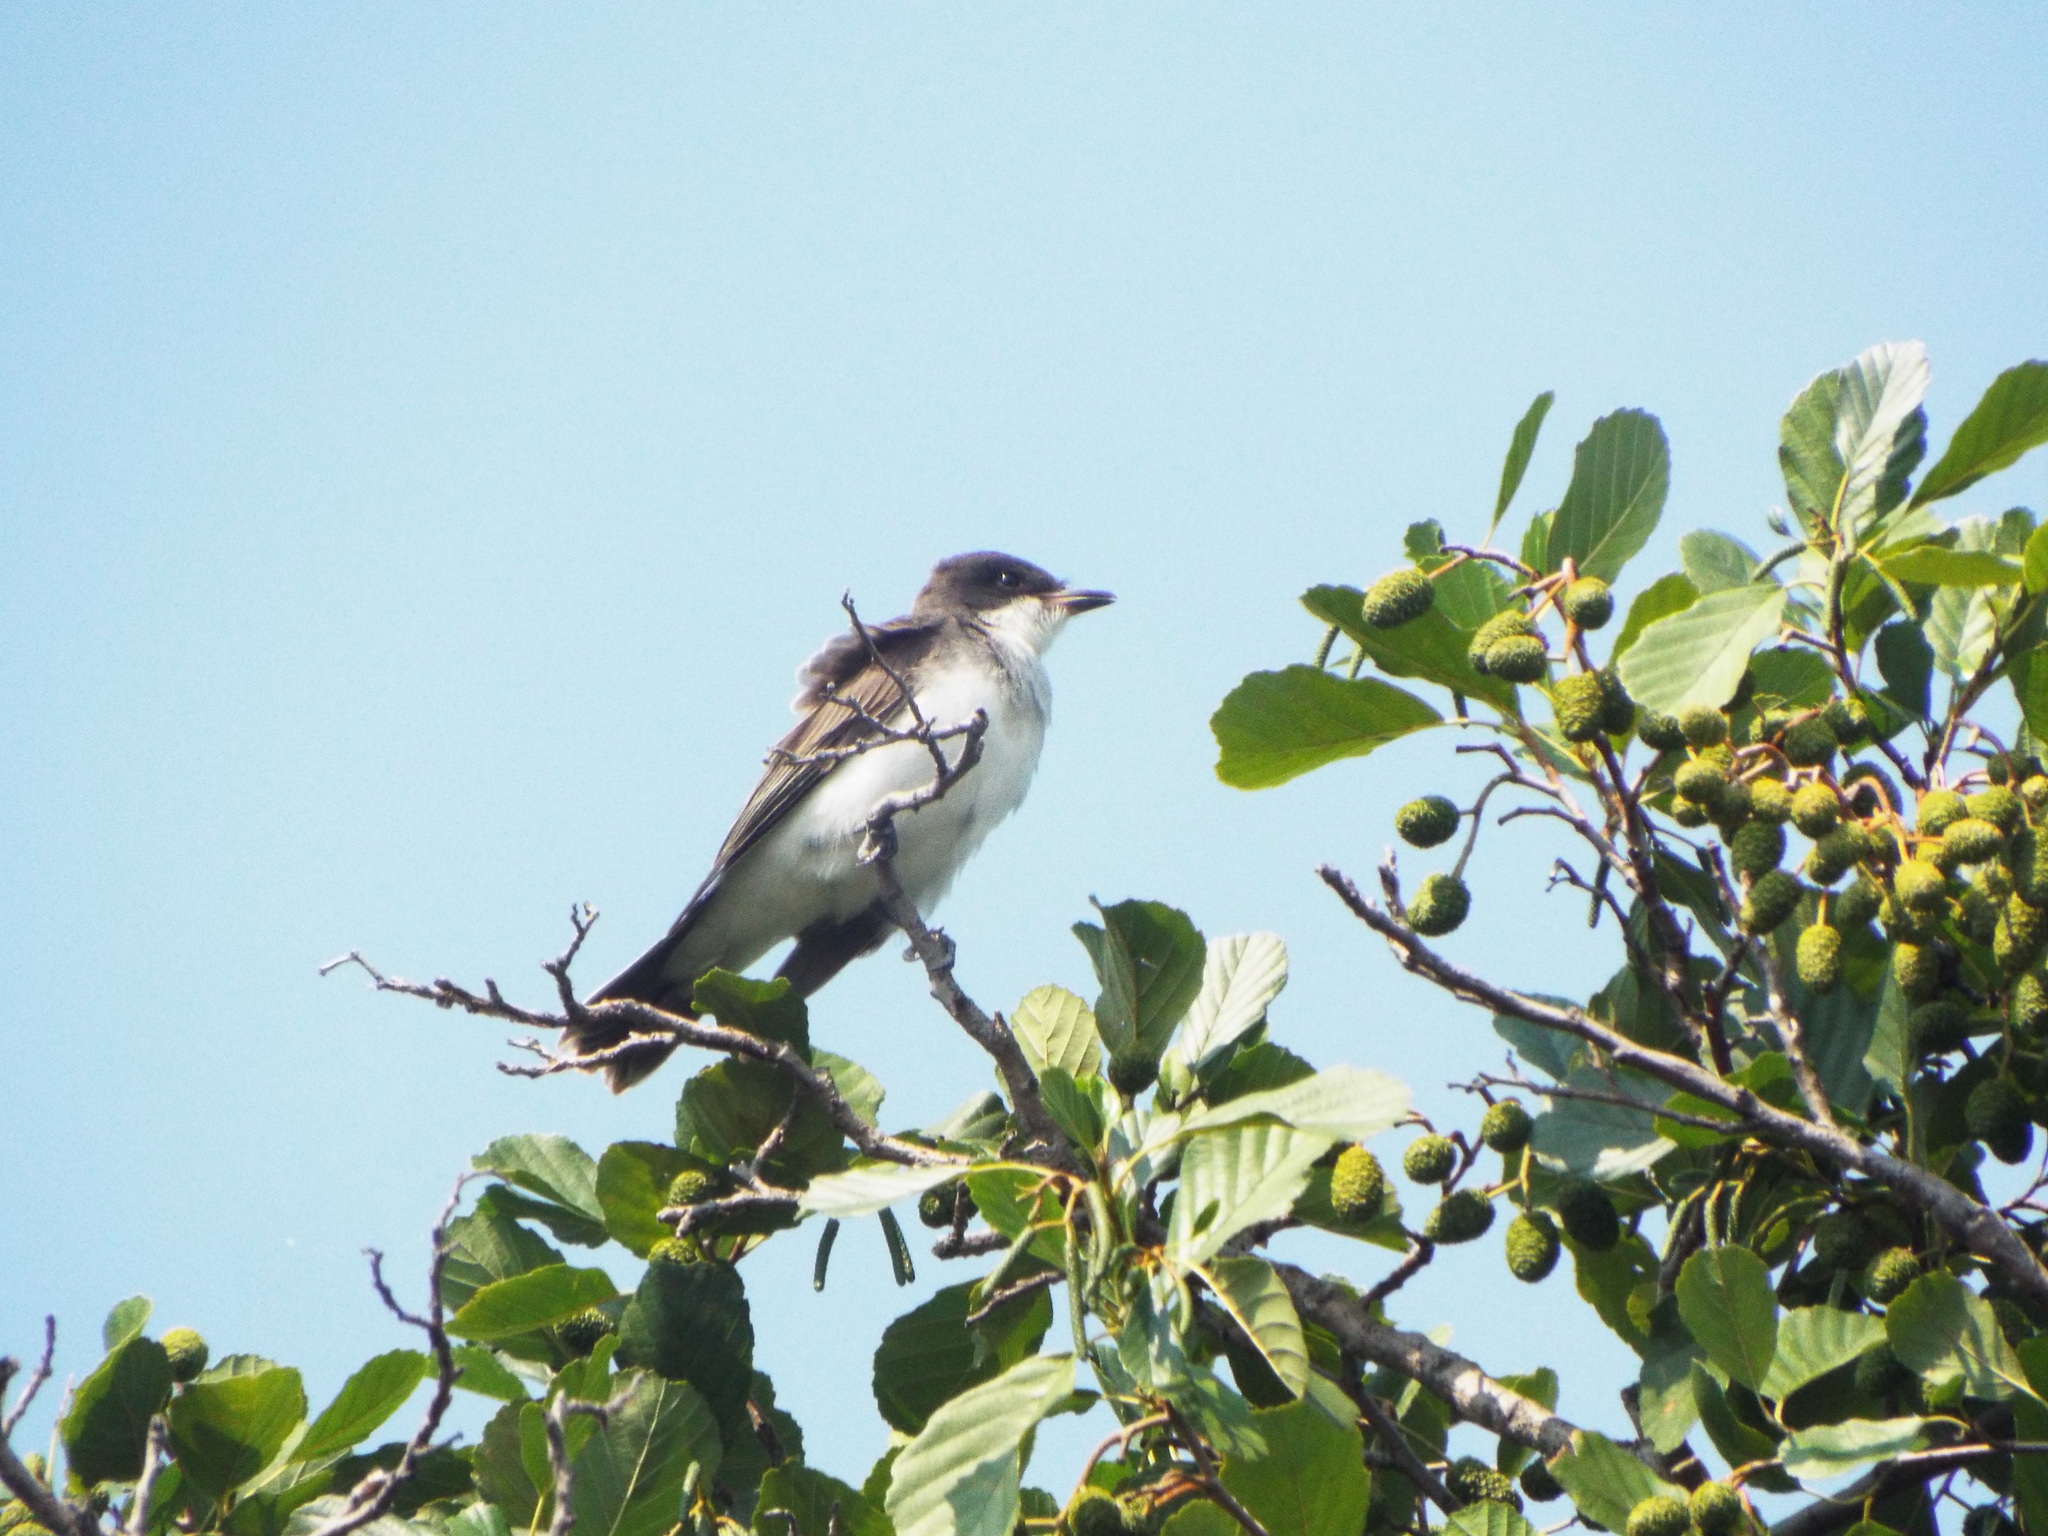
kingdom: Animalia
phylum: Chordata
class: Aves
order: Passeriformes
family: Tyrannidae
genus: Tyrannus
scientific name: Tyrannus tyrannus
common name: Eastern kingbird
